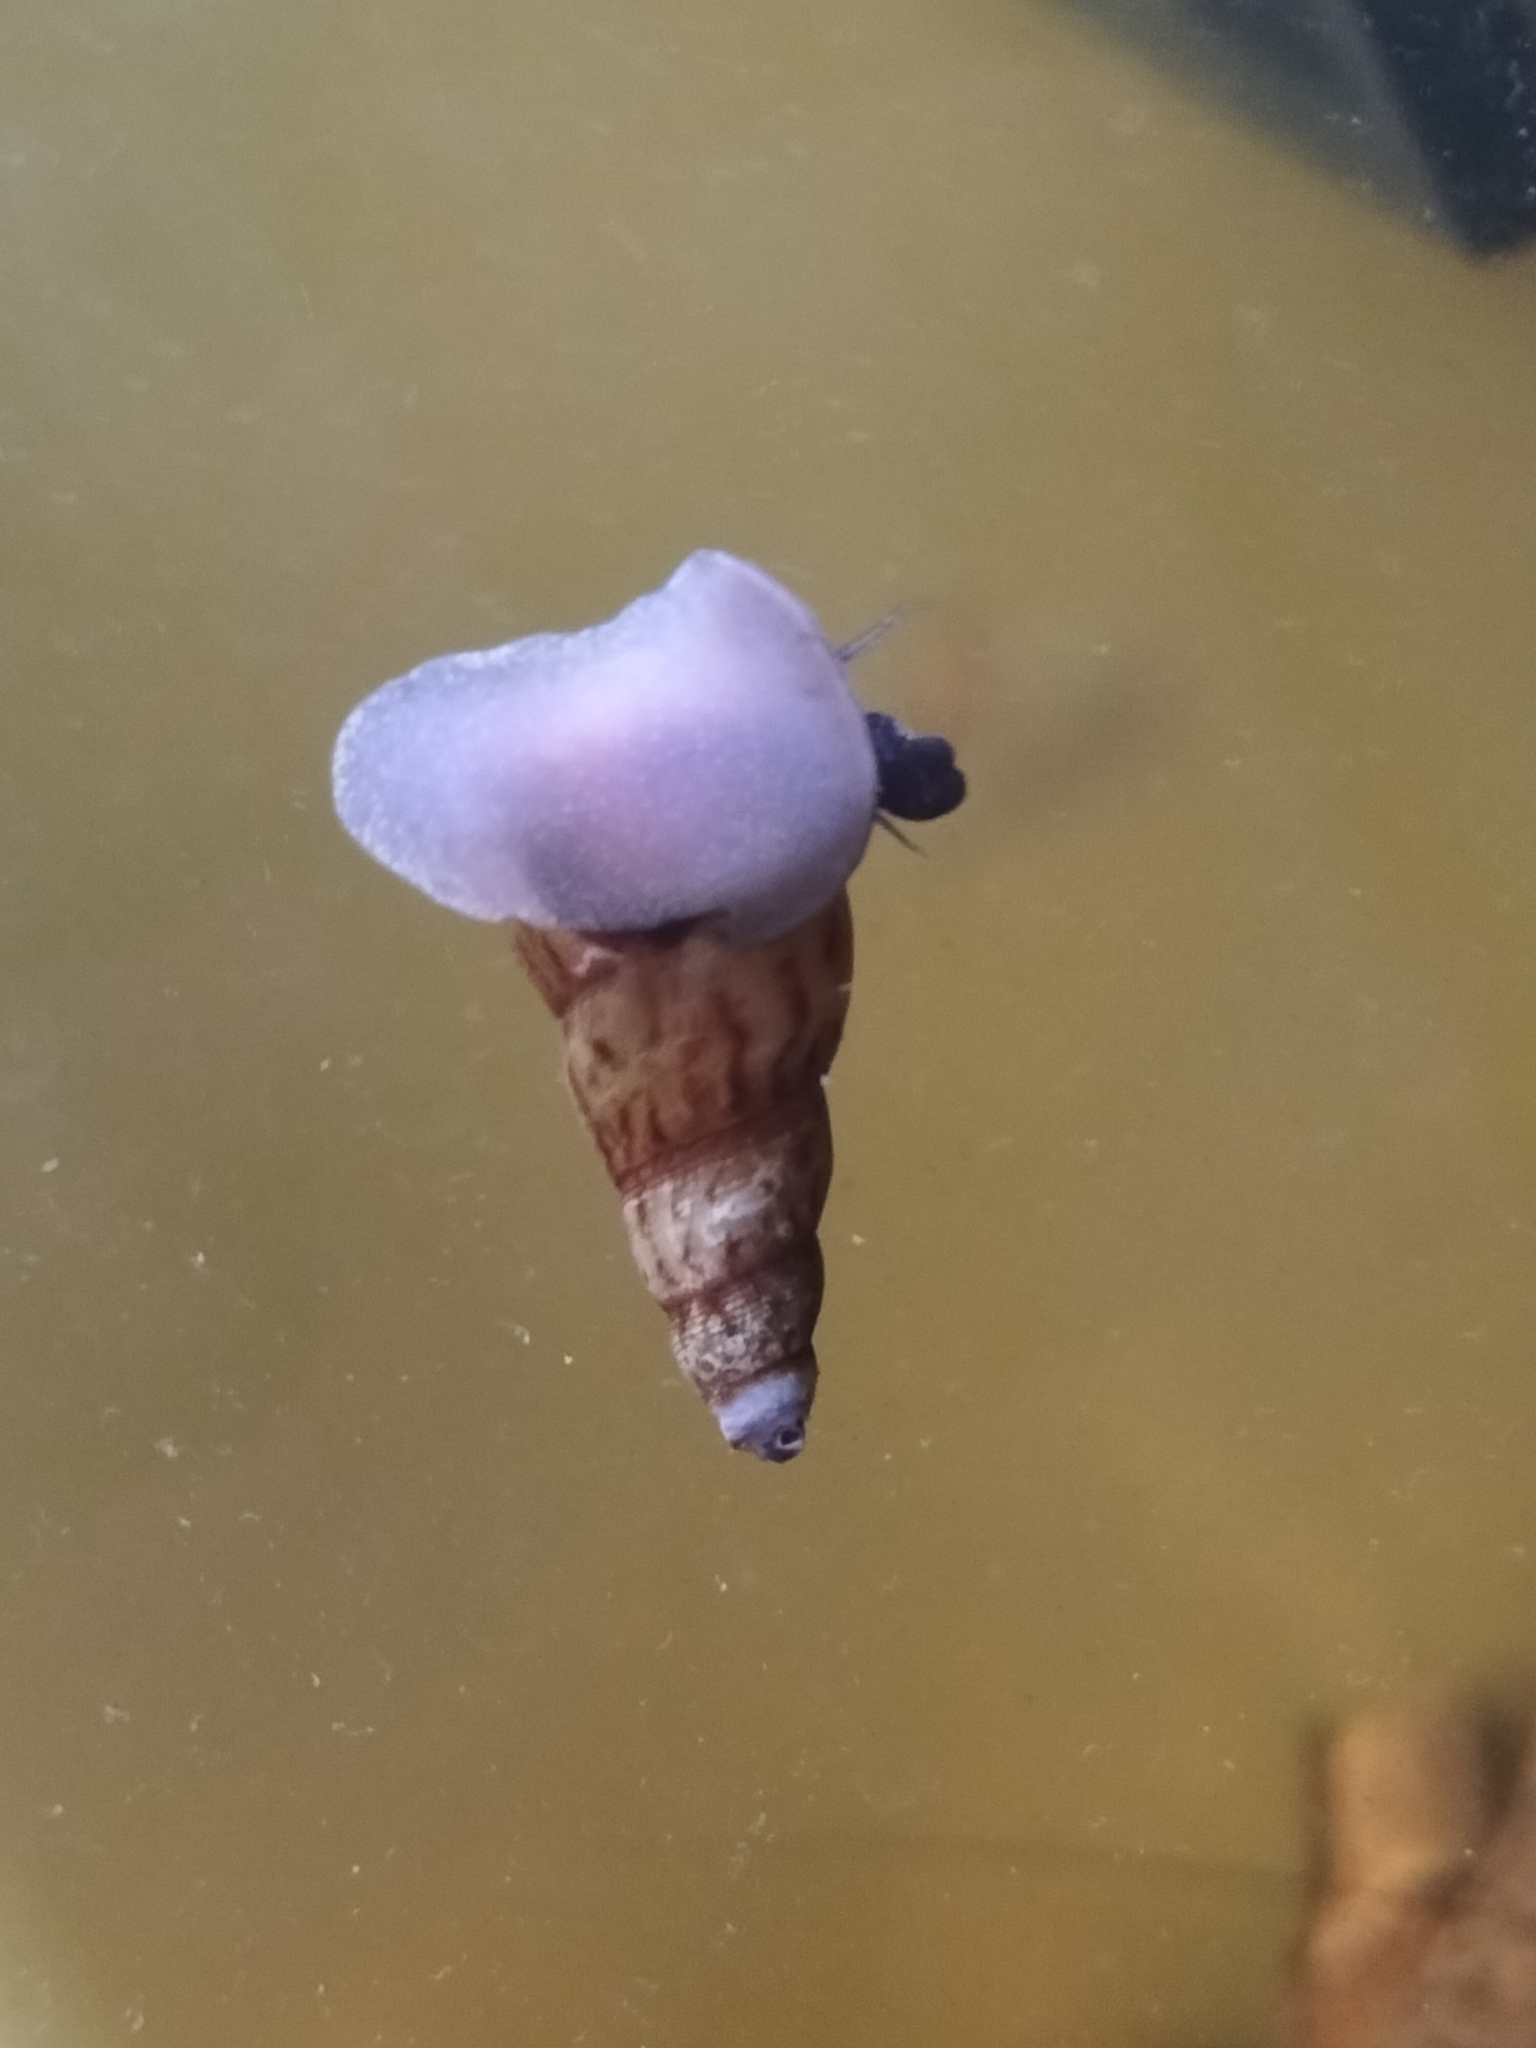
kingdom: Animalia
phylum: Mollusca
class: Gastropoda
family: Thiaridae
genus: Melanoides
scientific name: Melanoides tuberculata
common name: Red-rim melania
